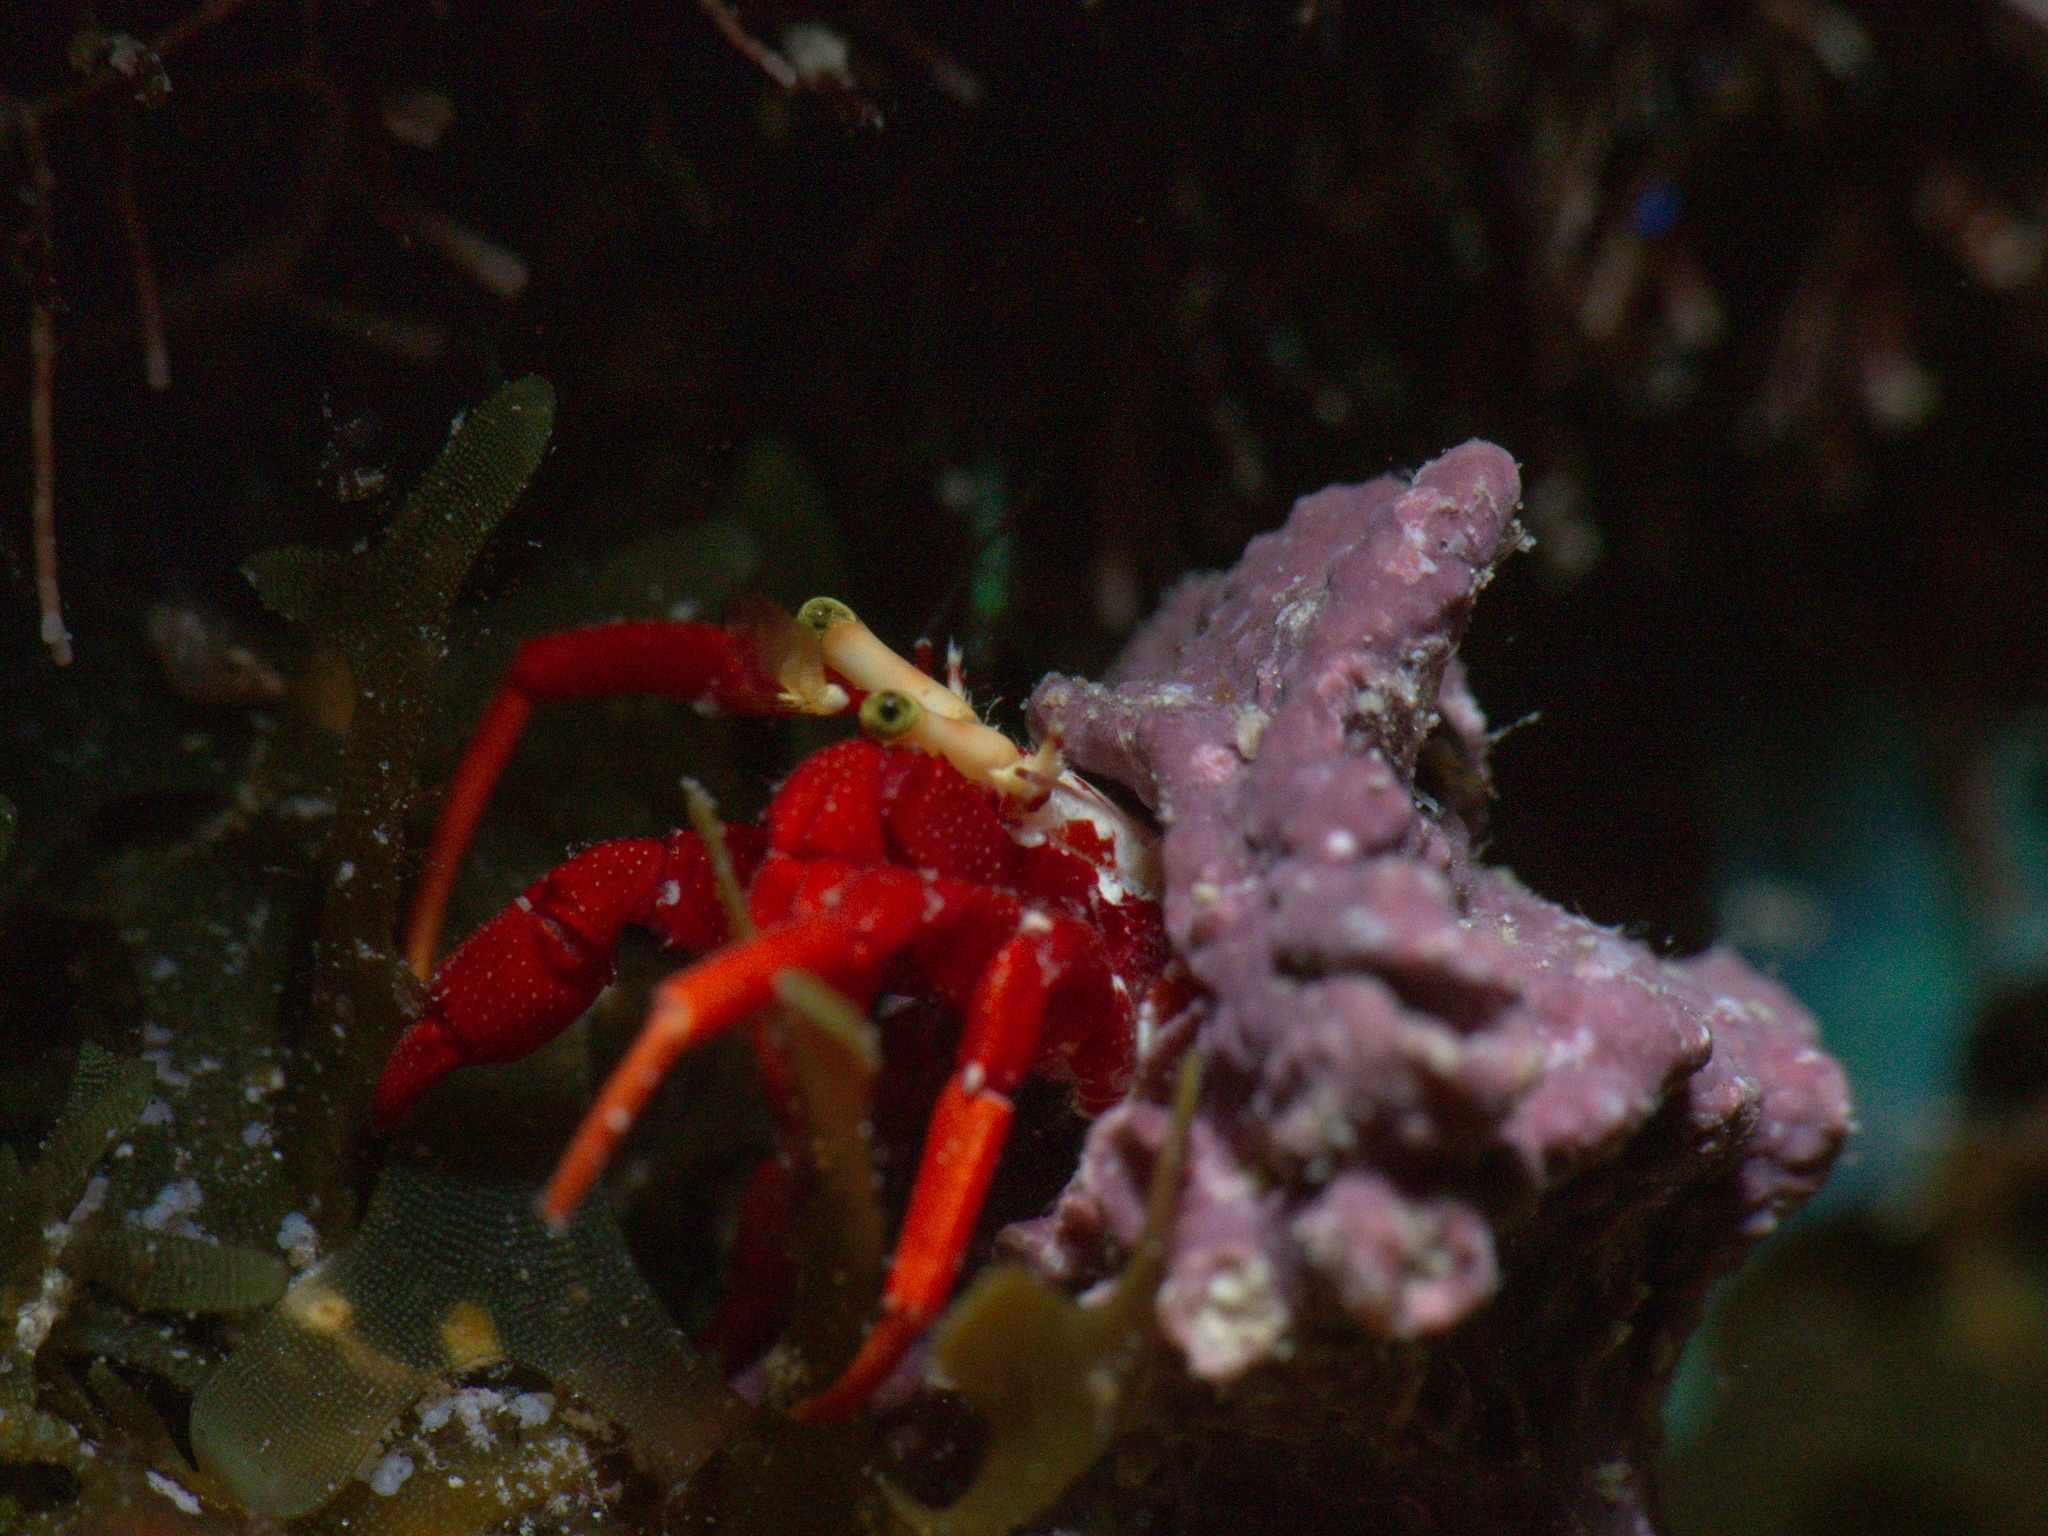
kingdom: Animalia
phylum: Arthropoda
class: Malacostraca
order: Decapoda
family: Diogenidae
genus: Paguristes
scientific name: Paguristes cadenati
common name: Red reef hermit
